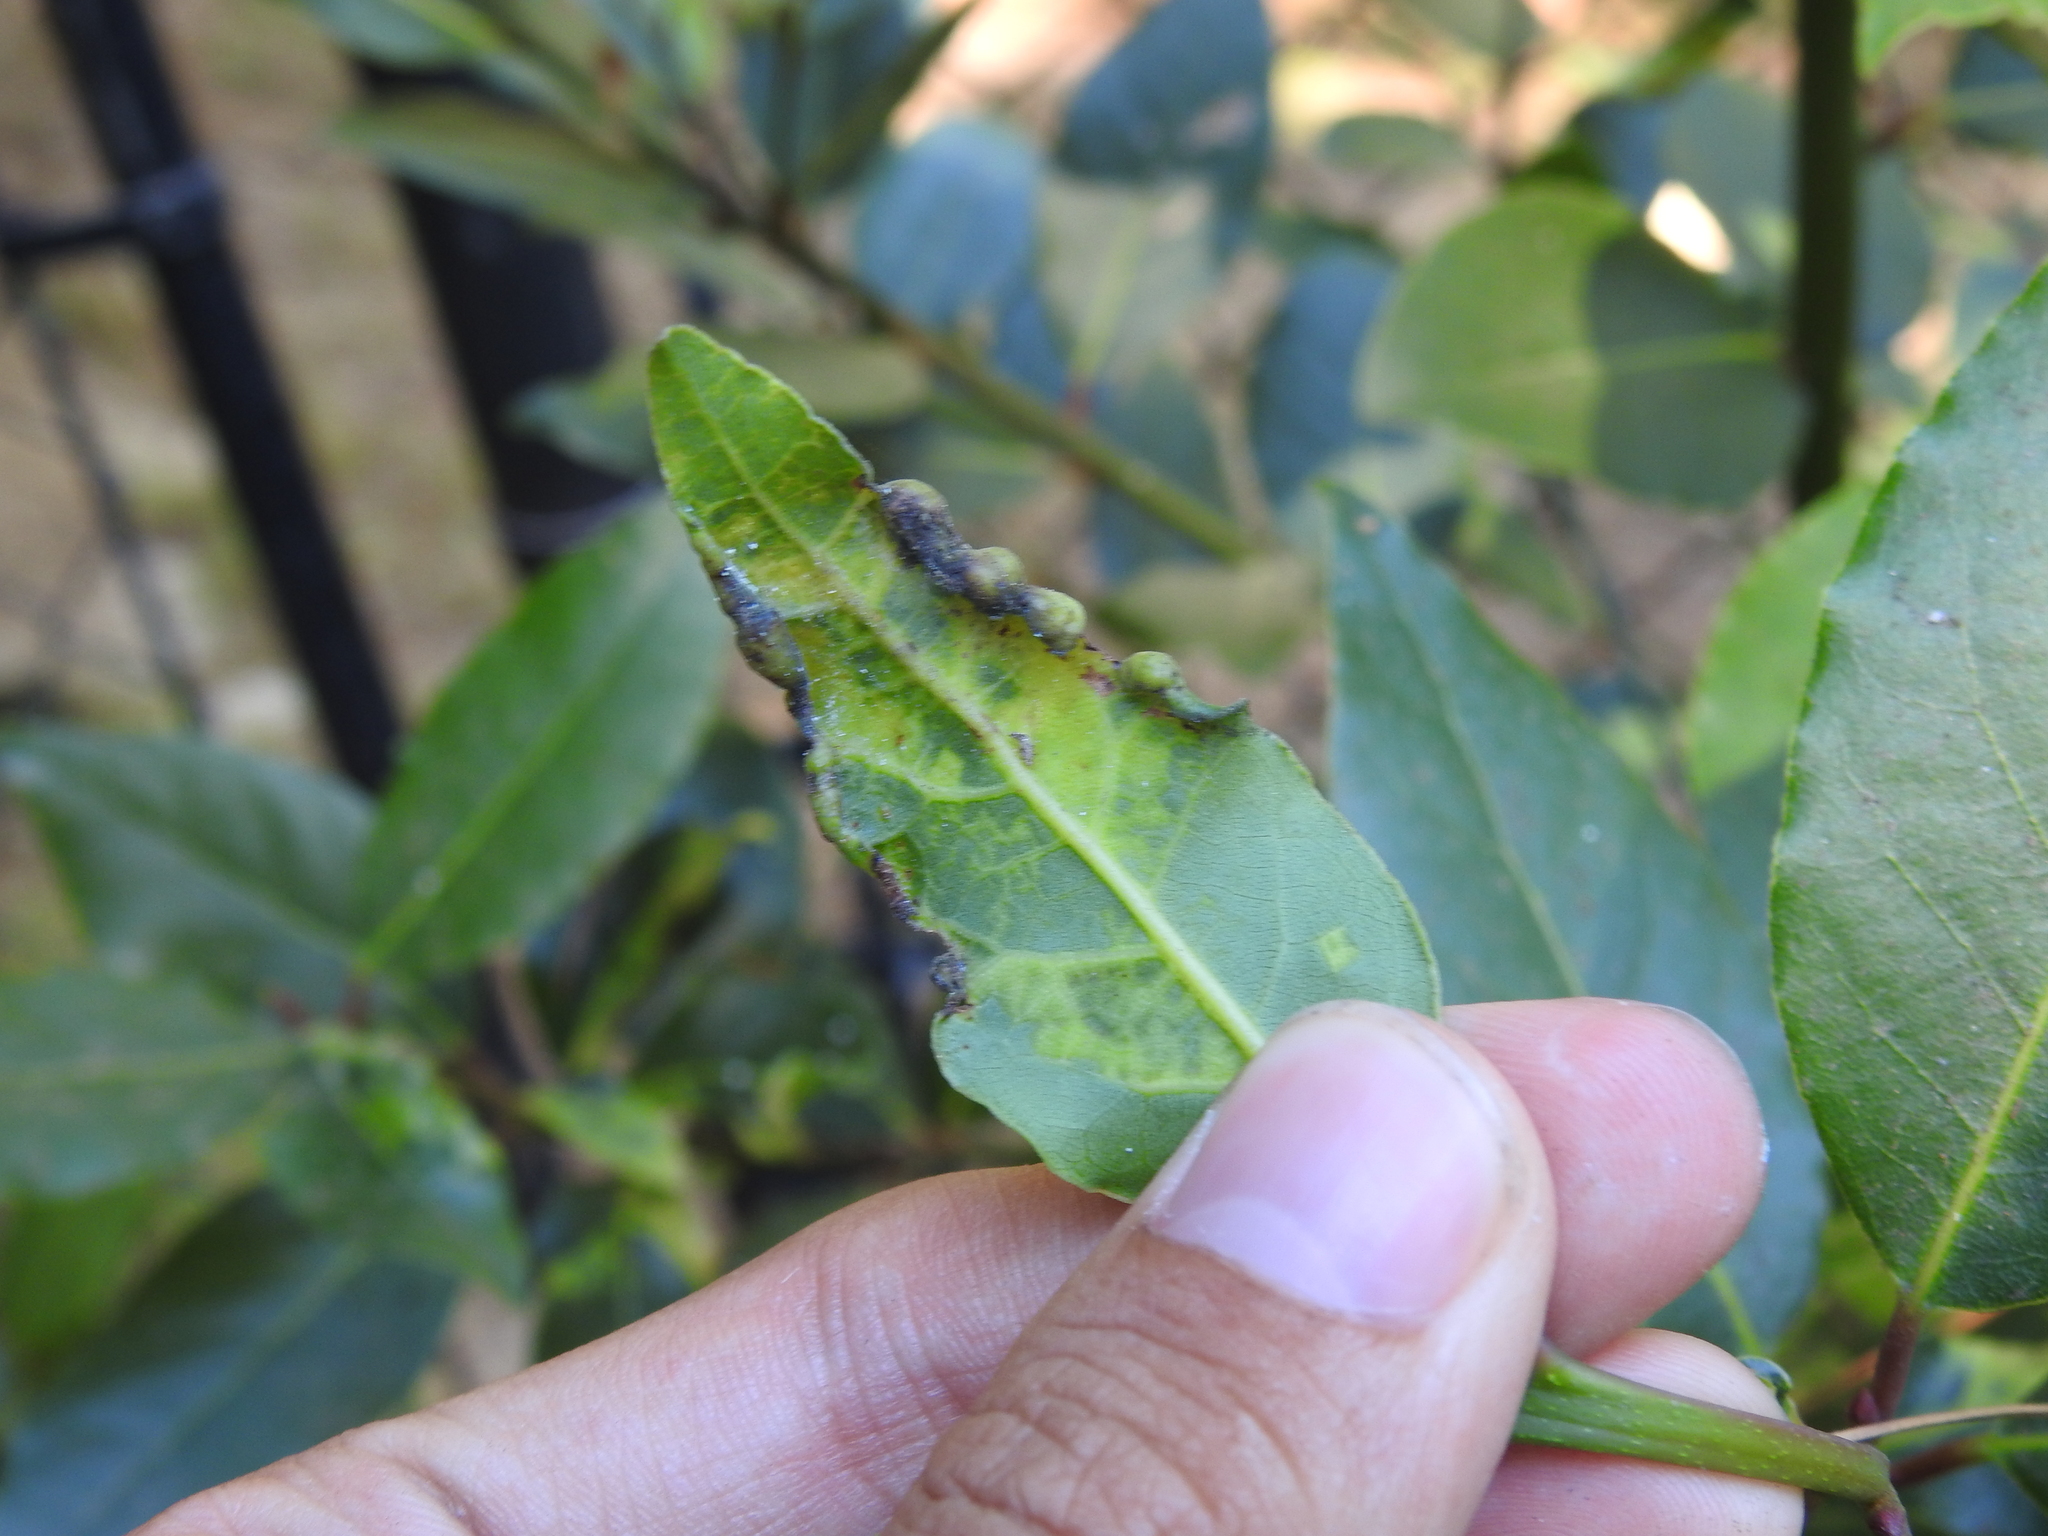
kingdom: Animalia
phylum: Arthropoda
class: Insecta
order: Hemiptera
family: Triozidae
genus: Lauritrioza
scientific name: Lauritrioza alacris
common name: Laurel psyllid
